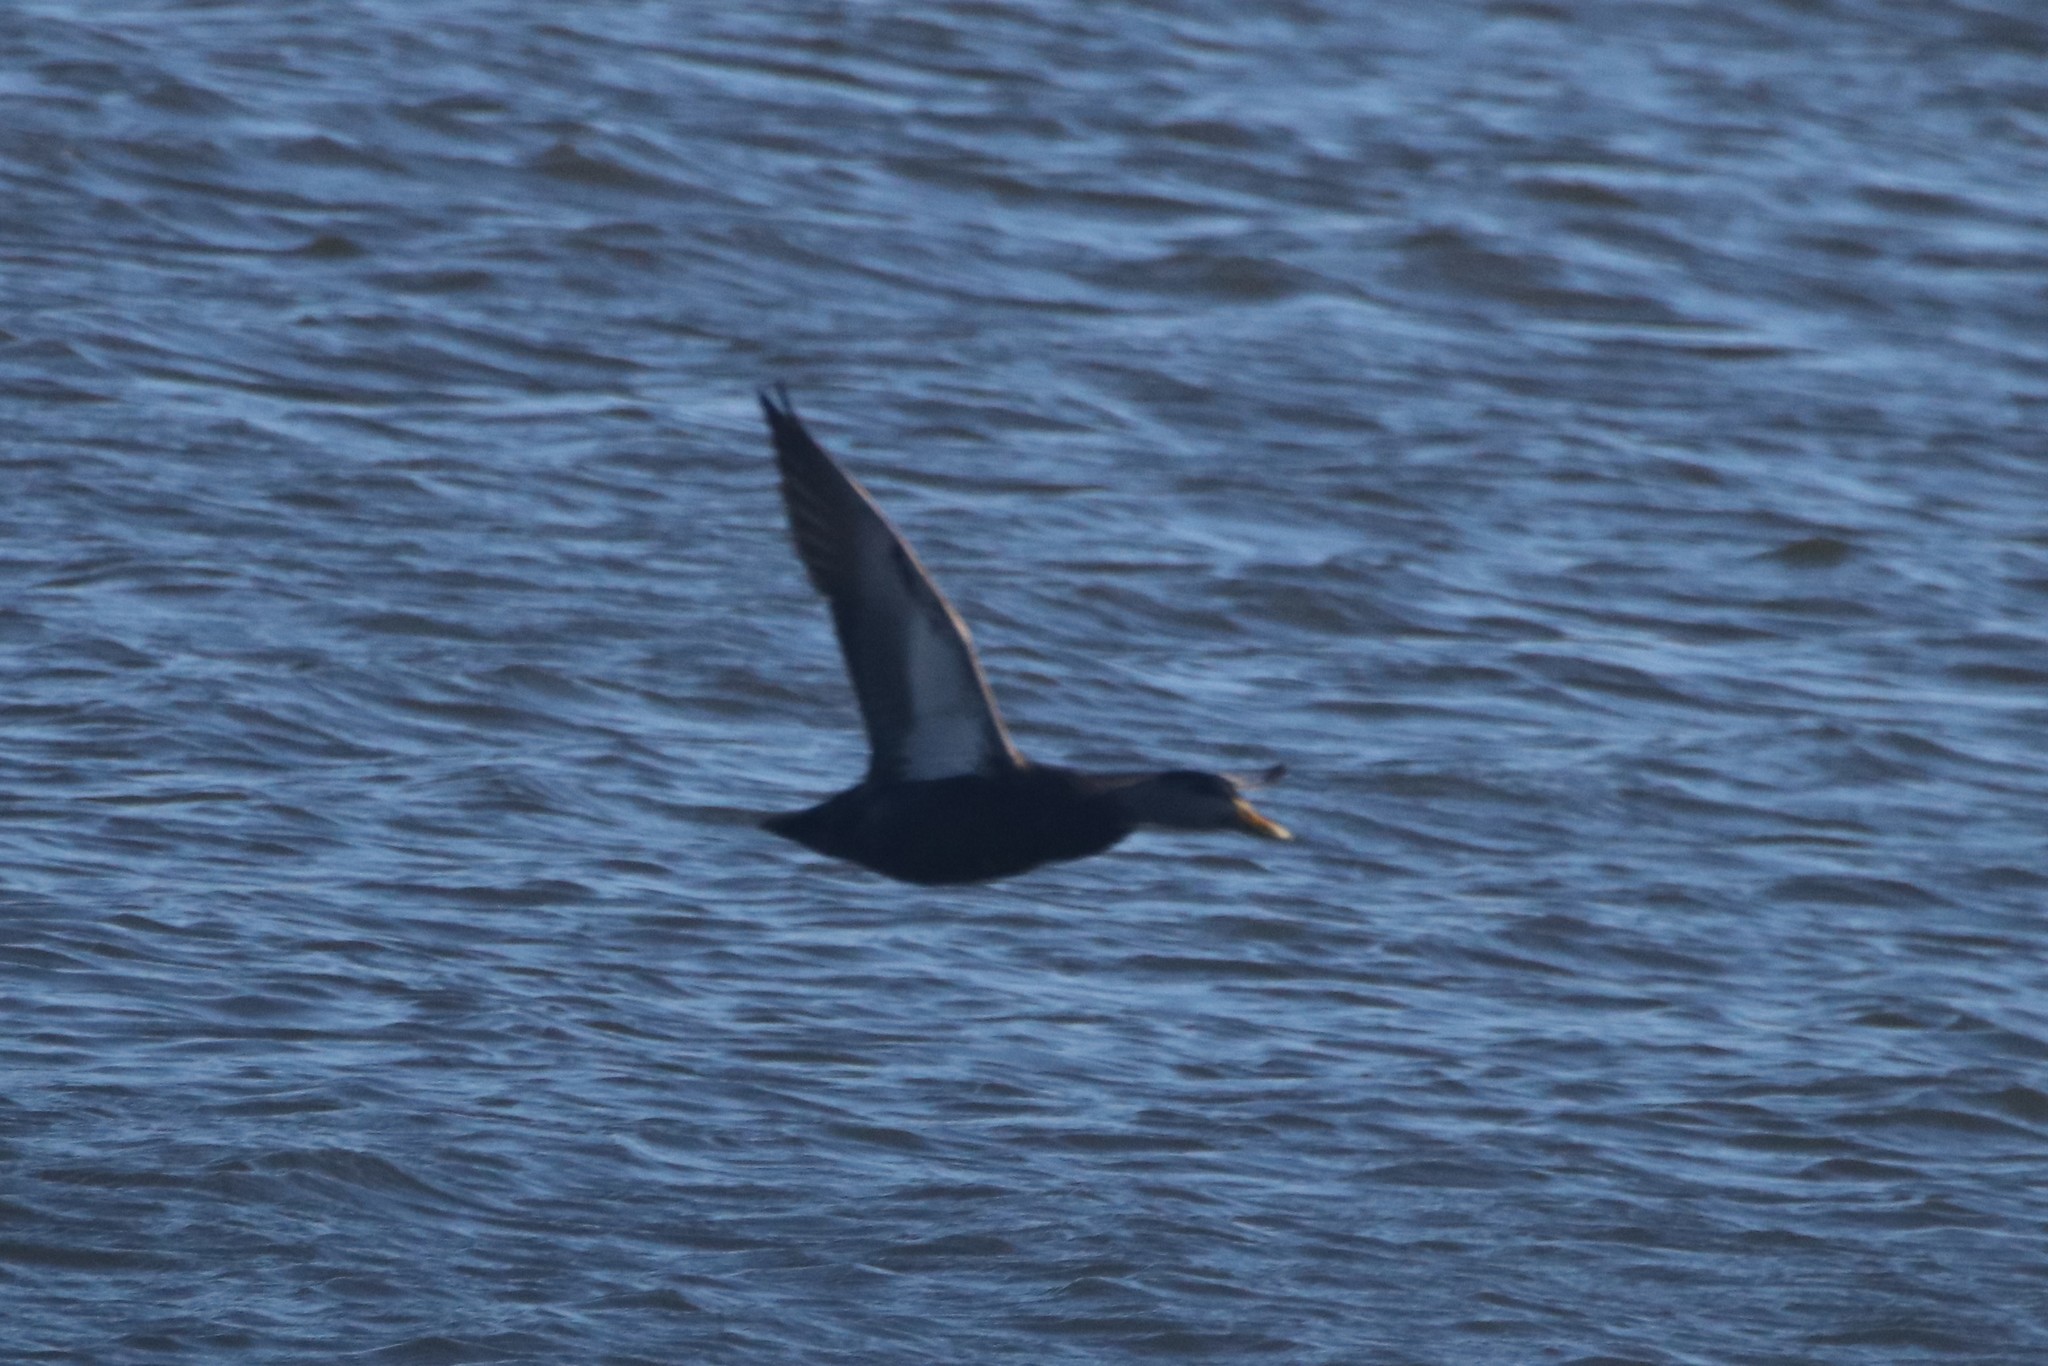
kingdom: Animalia
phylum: Chordata
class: Aves
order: Anseriformes
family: Anatidae
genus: Anas
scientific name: Anas rubripes
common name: American black duck
